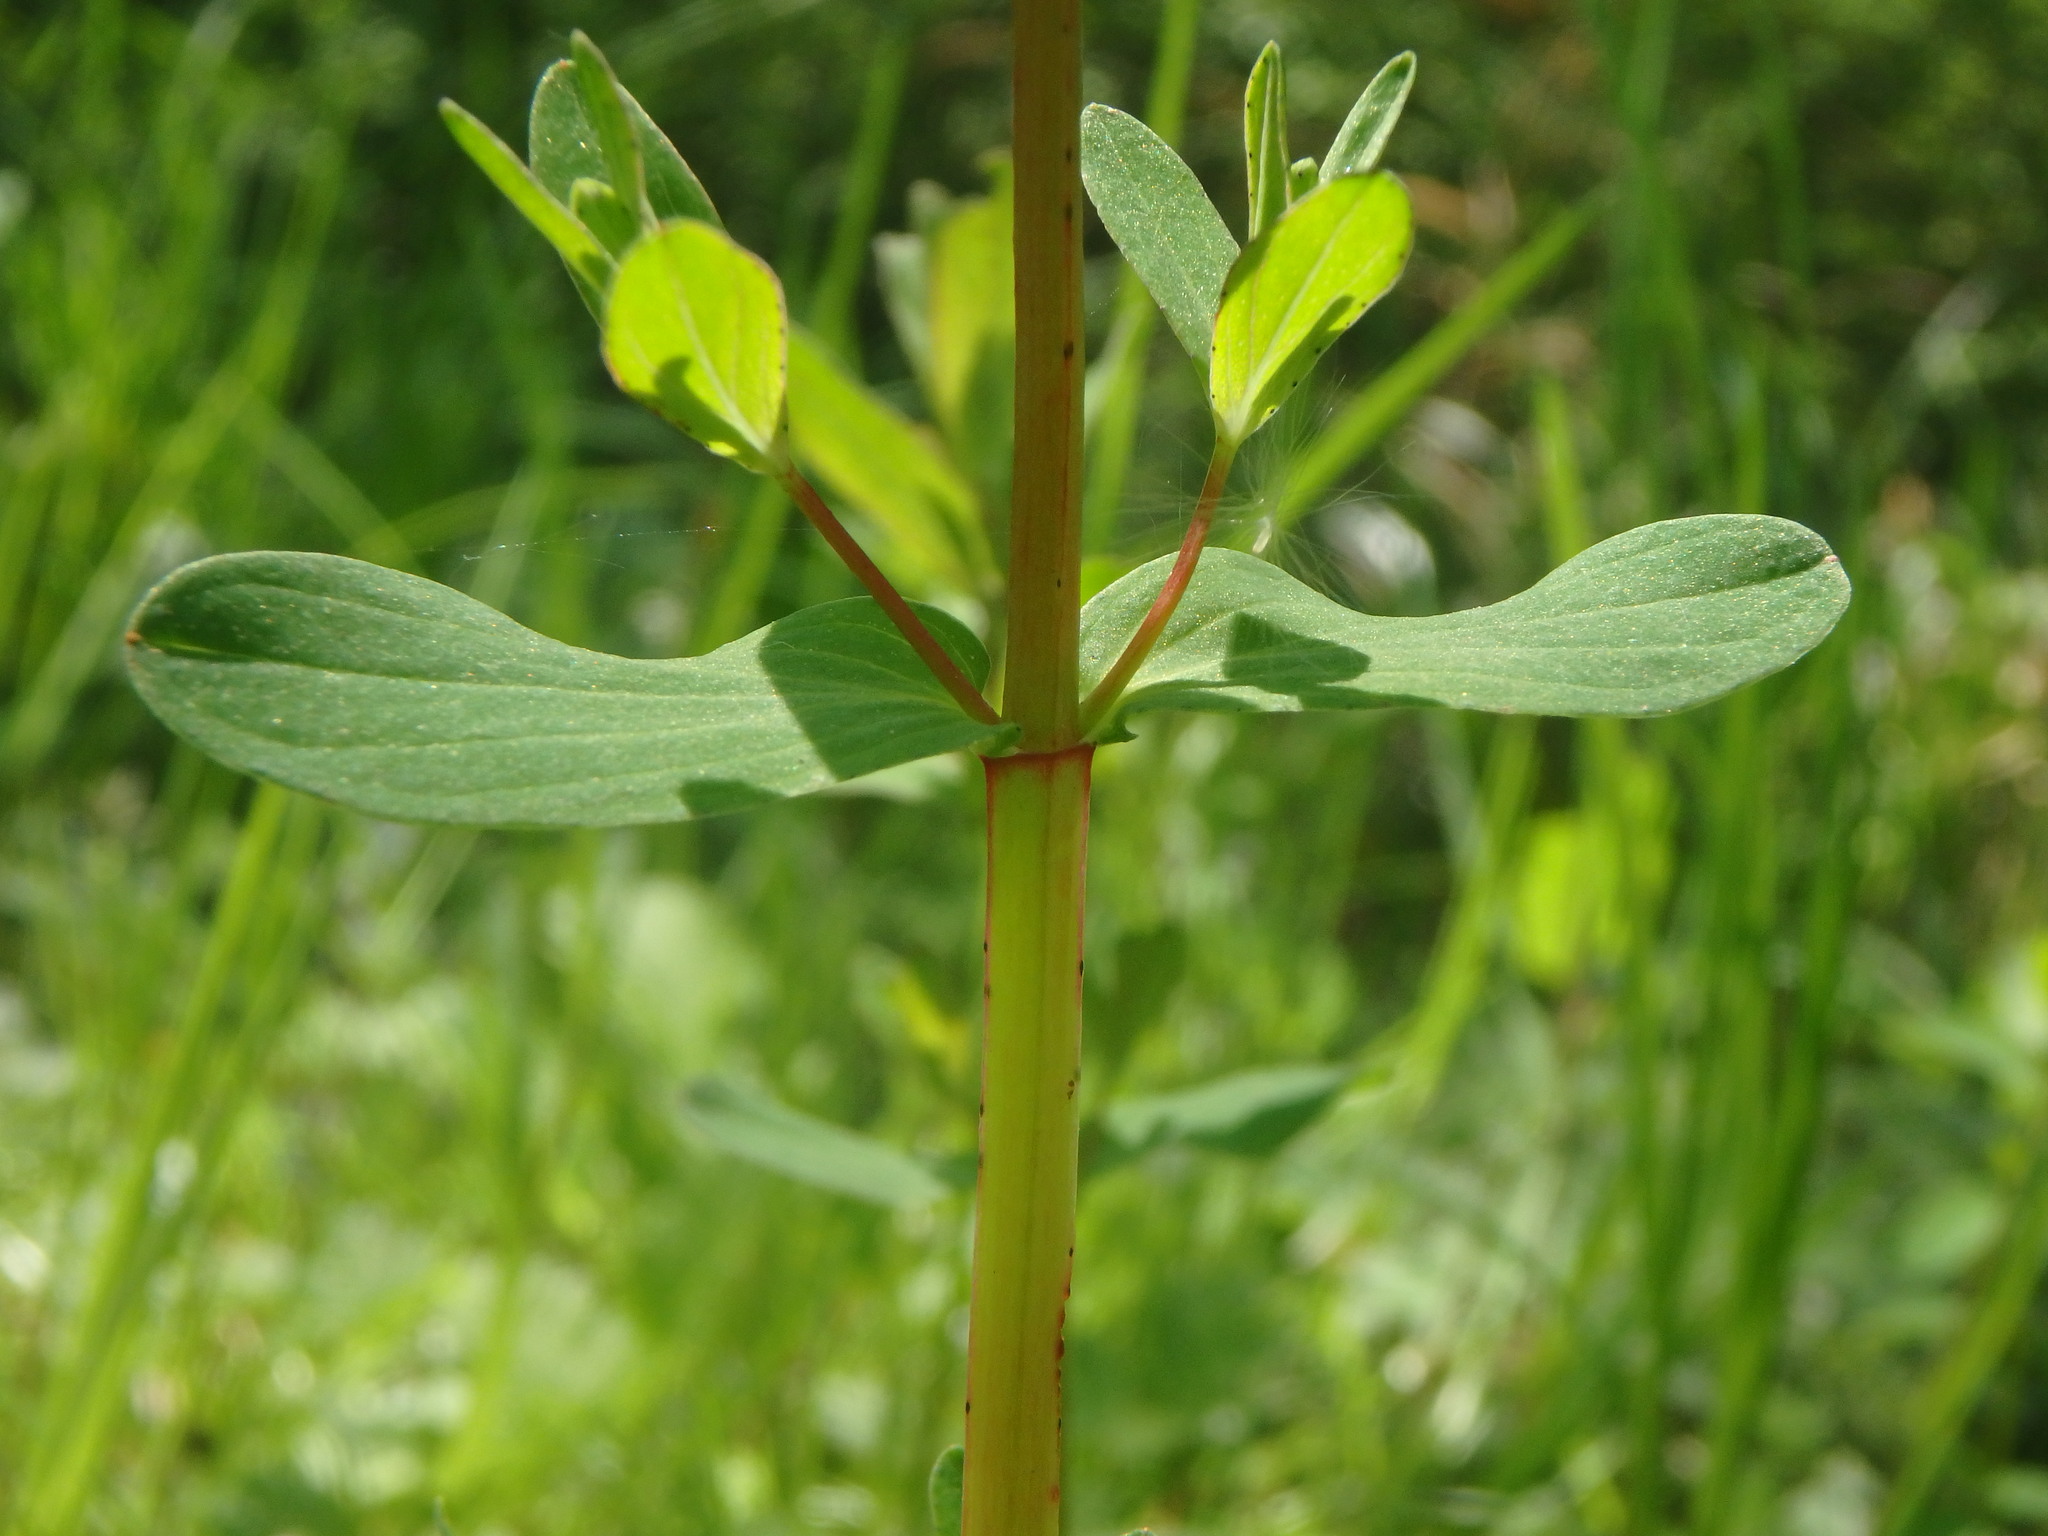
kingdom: Plantae
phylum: Tracheophyta
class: Magnoliopsida
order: Malpighiales
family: Hypericaceae
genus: Hypericum
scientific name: Hypericum perforatum
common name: Common st. johnswort
